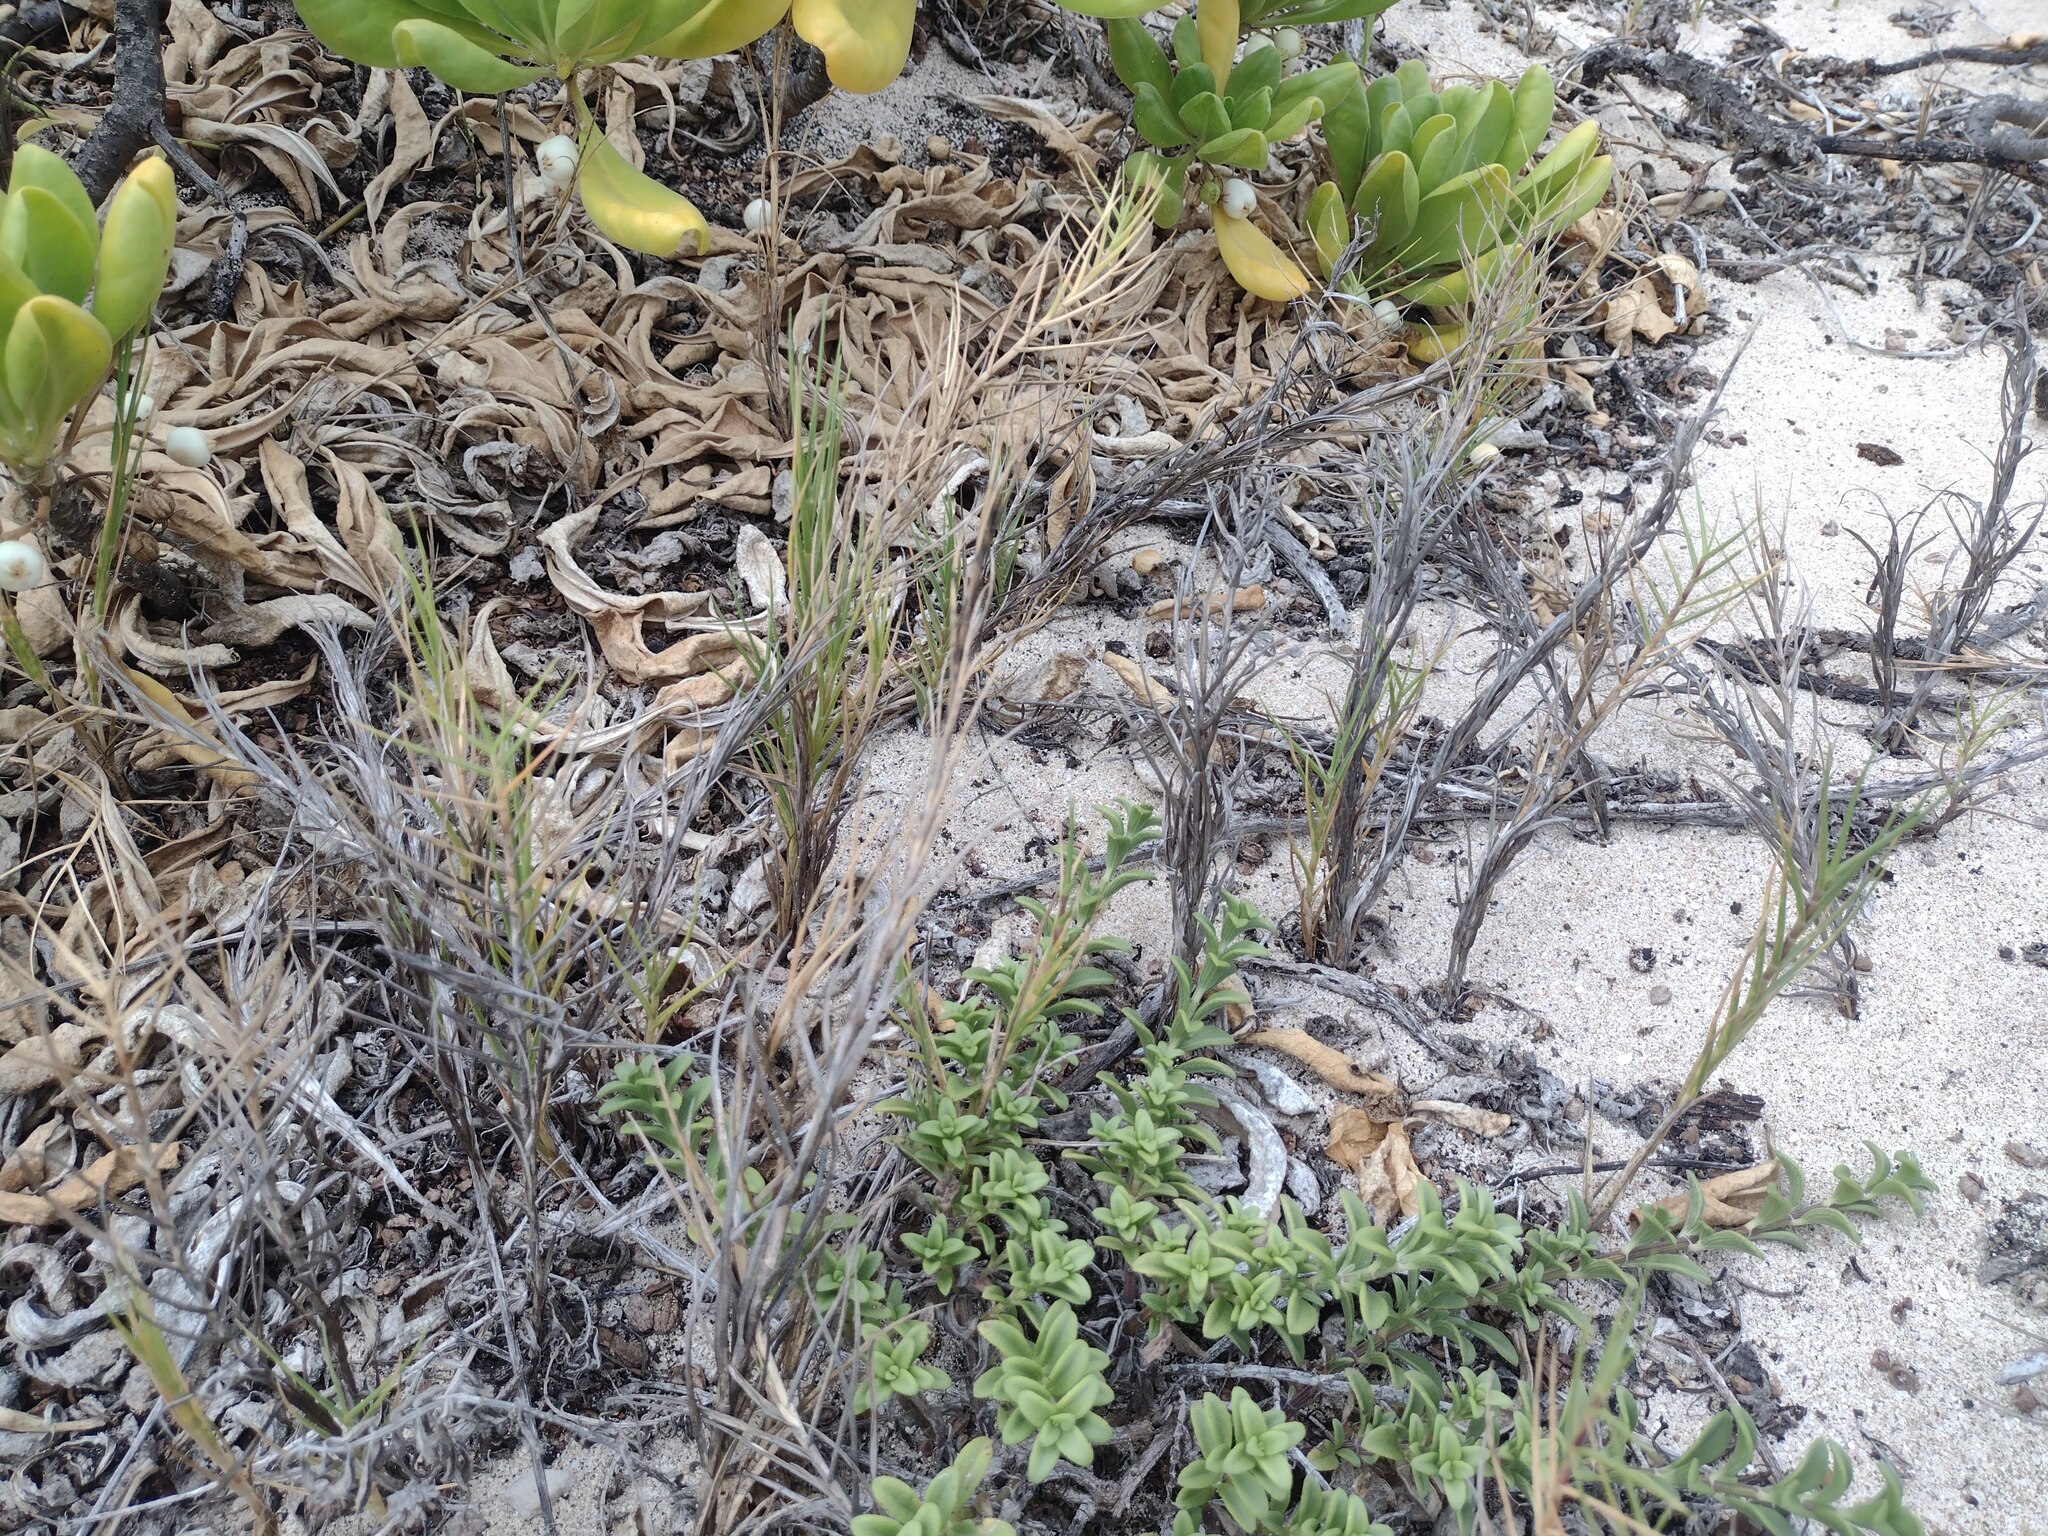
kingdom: Plantae
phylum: Tracheophyta
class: Liliopsida
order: Poales
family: Poaceae
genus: Sporobolus
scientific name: Sporobolus virginicus
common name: Beach dropseed
